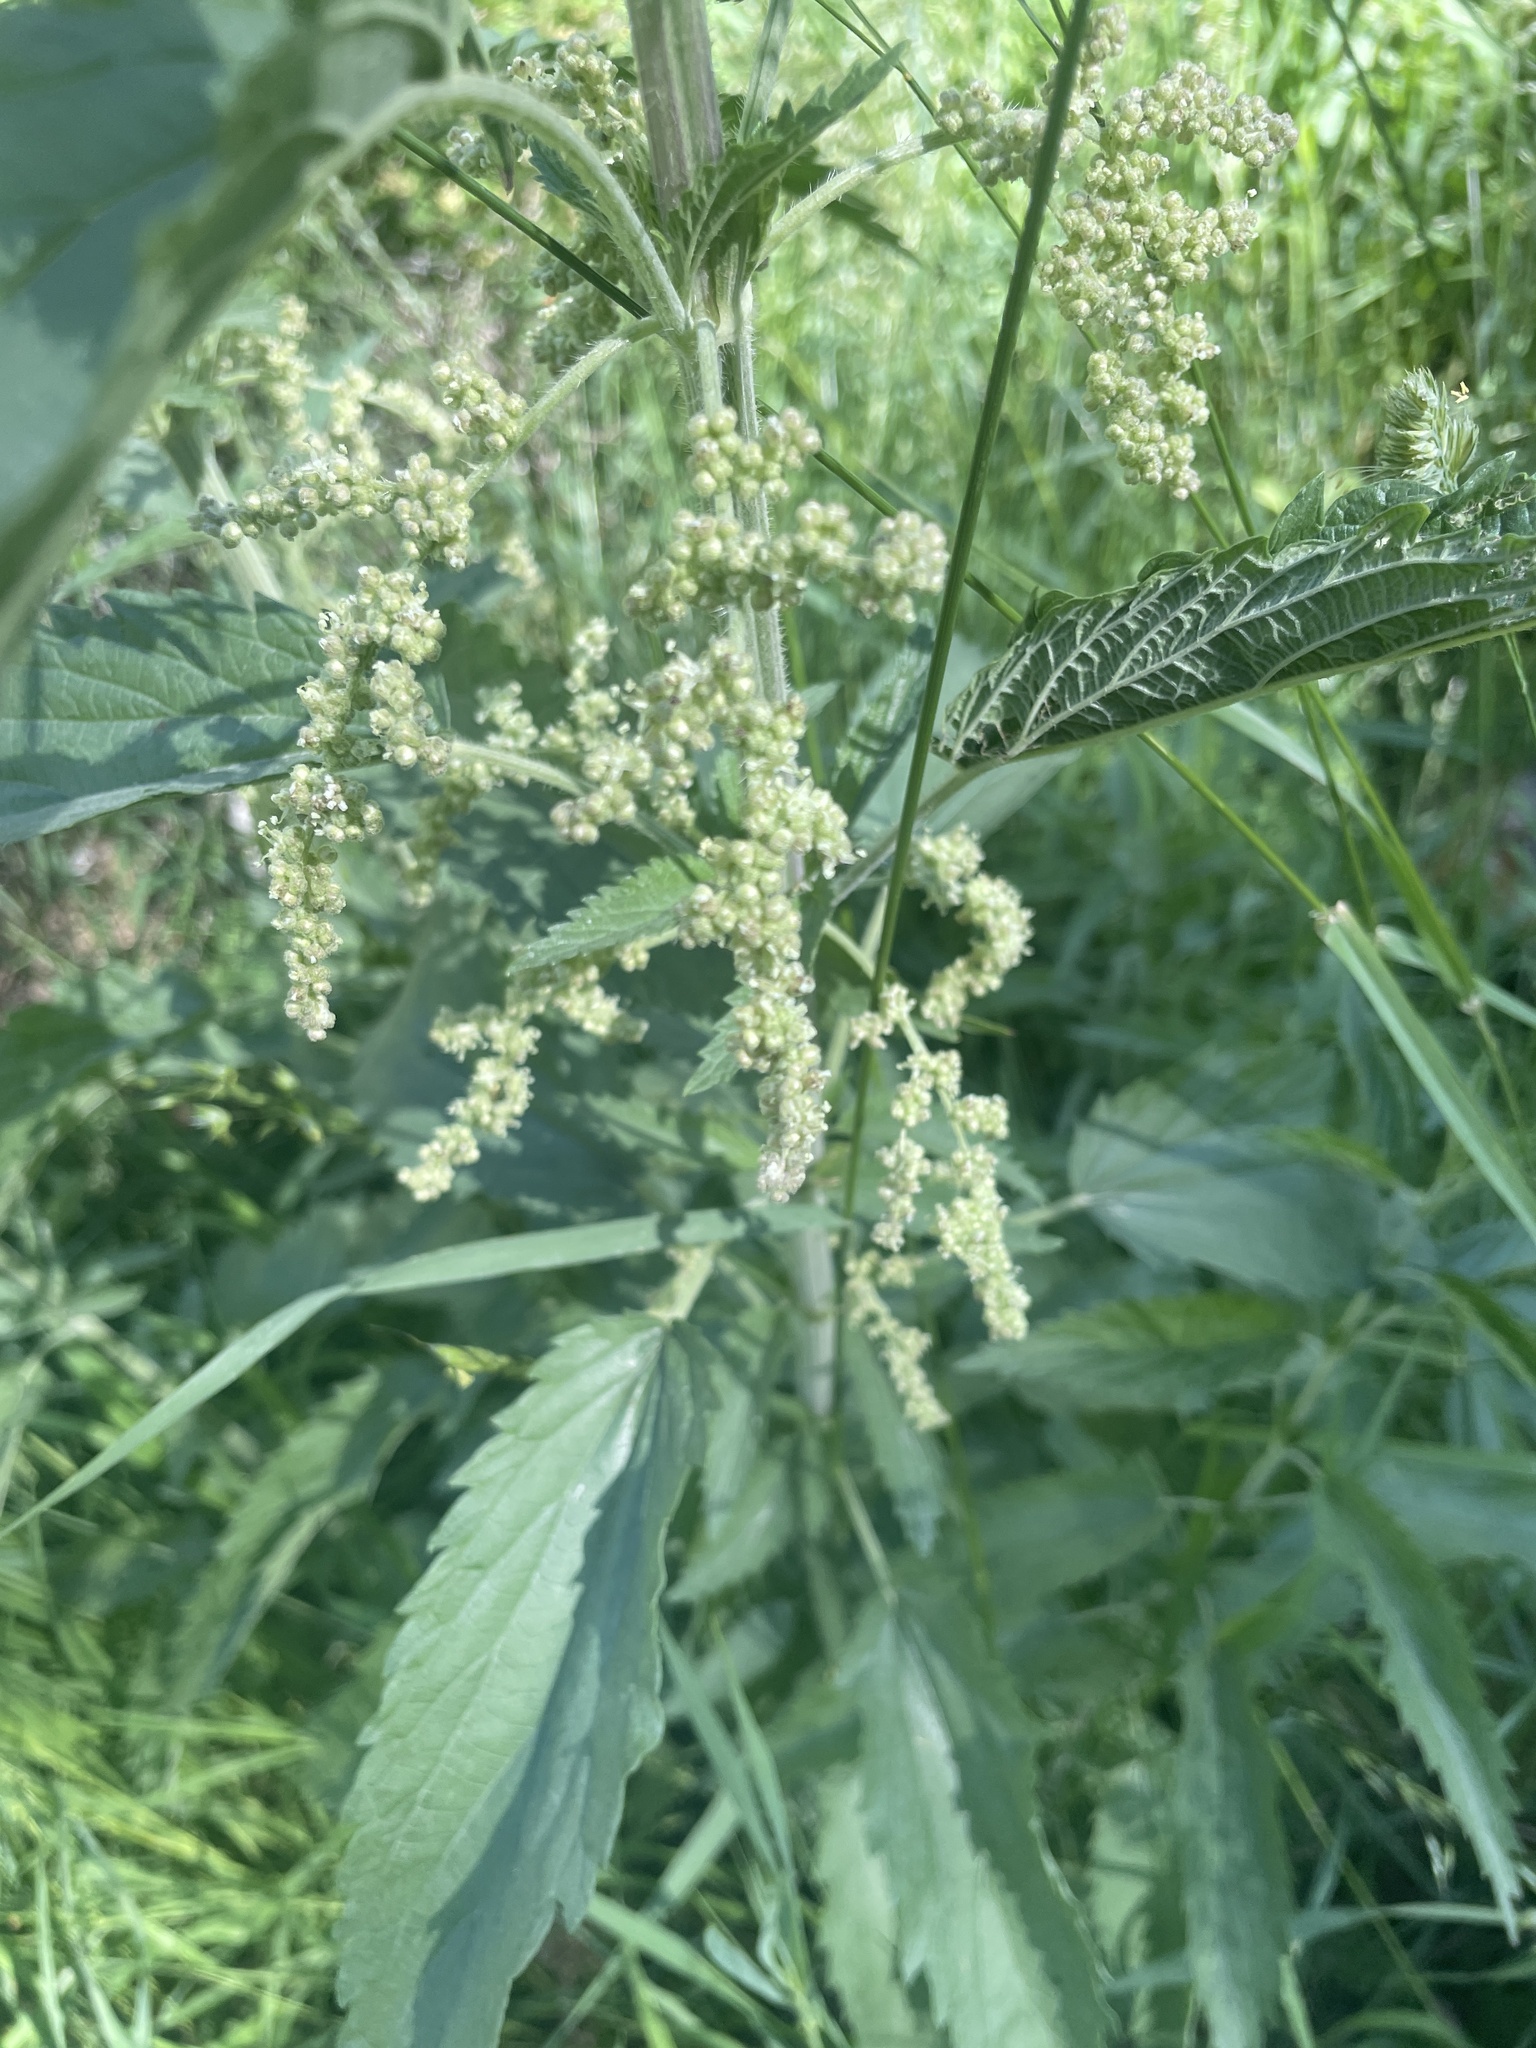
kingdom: Plantae
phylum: Tracheophyta
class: Magnoliopsida
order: Rosales
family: Urticaceae
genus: Urtica
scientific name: Urtica gracilis
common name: Slender stinging nettle
